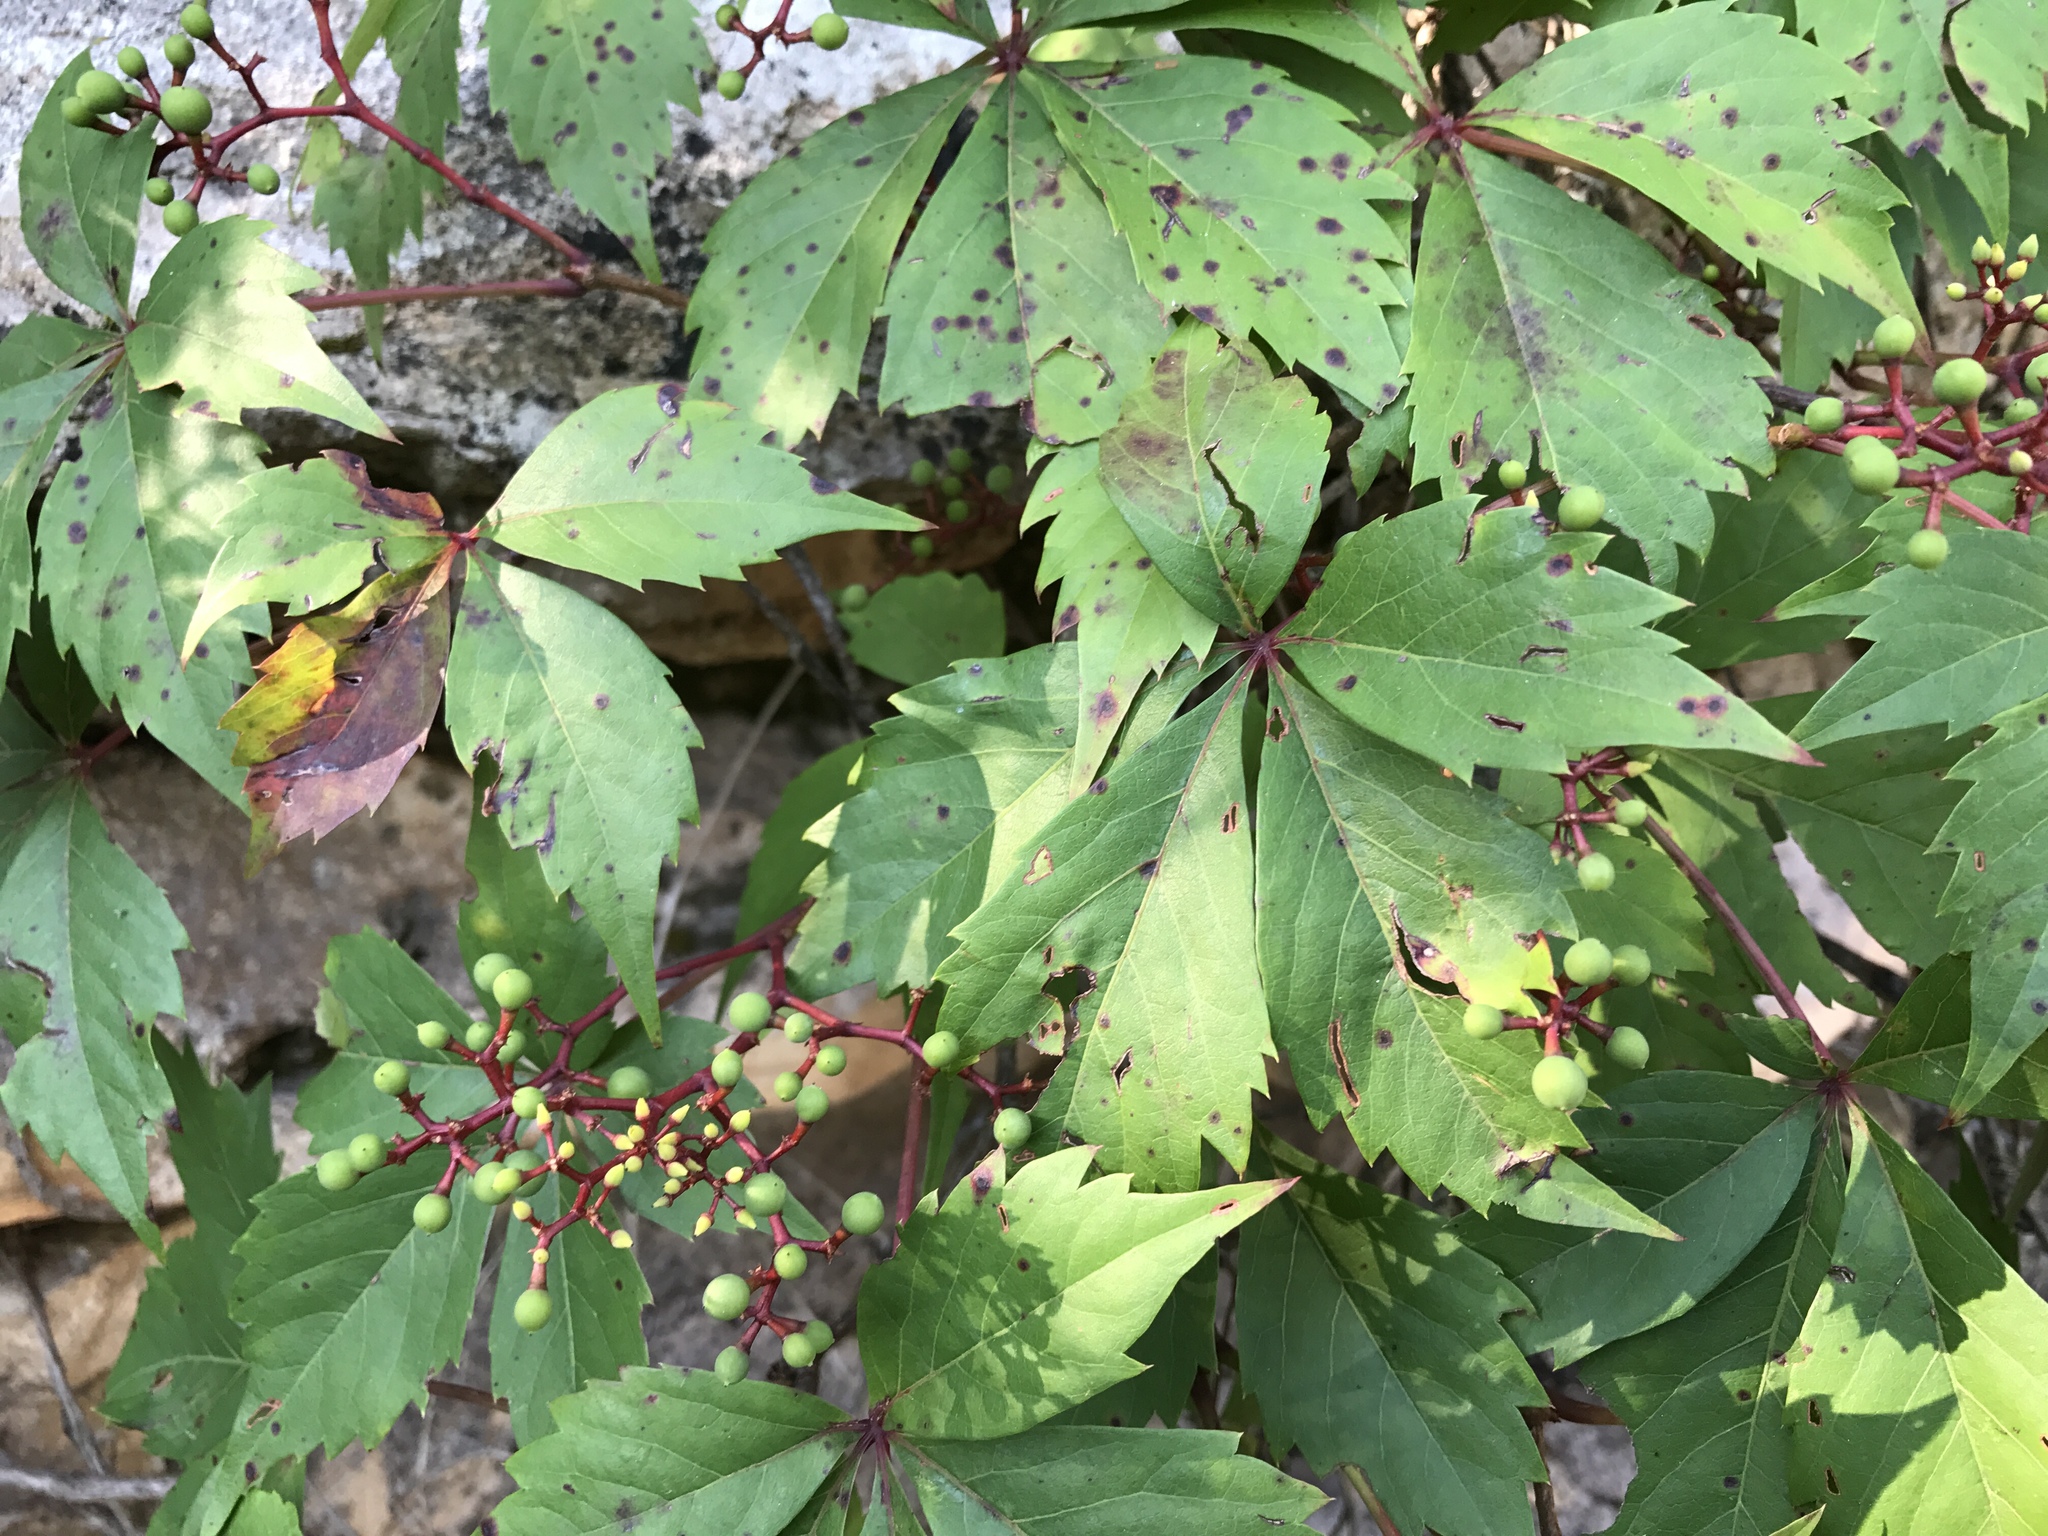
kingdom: Plantae
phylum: Tracheophyta
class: Magnoliopsida
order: Vitales
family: Vitaceae
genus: Parthenocissus
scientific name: Parthenocissus quinquefolia
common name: Virginia-creeper
